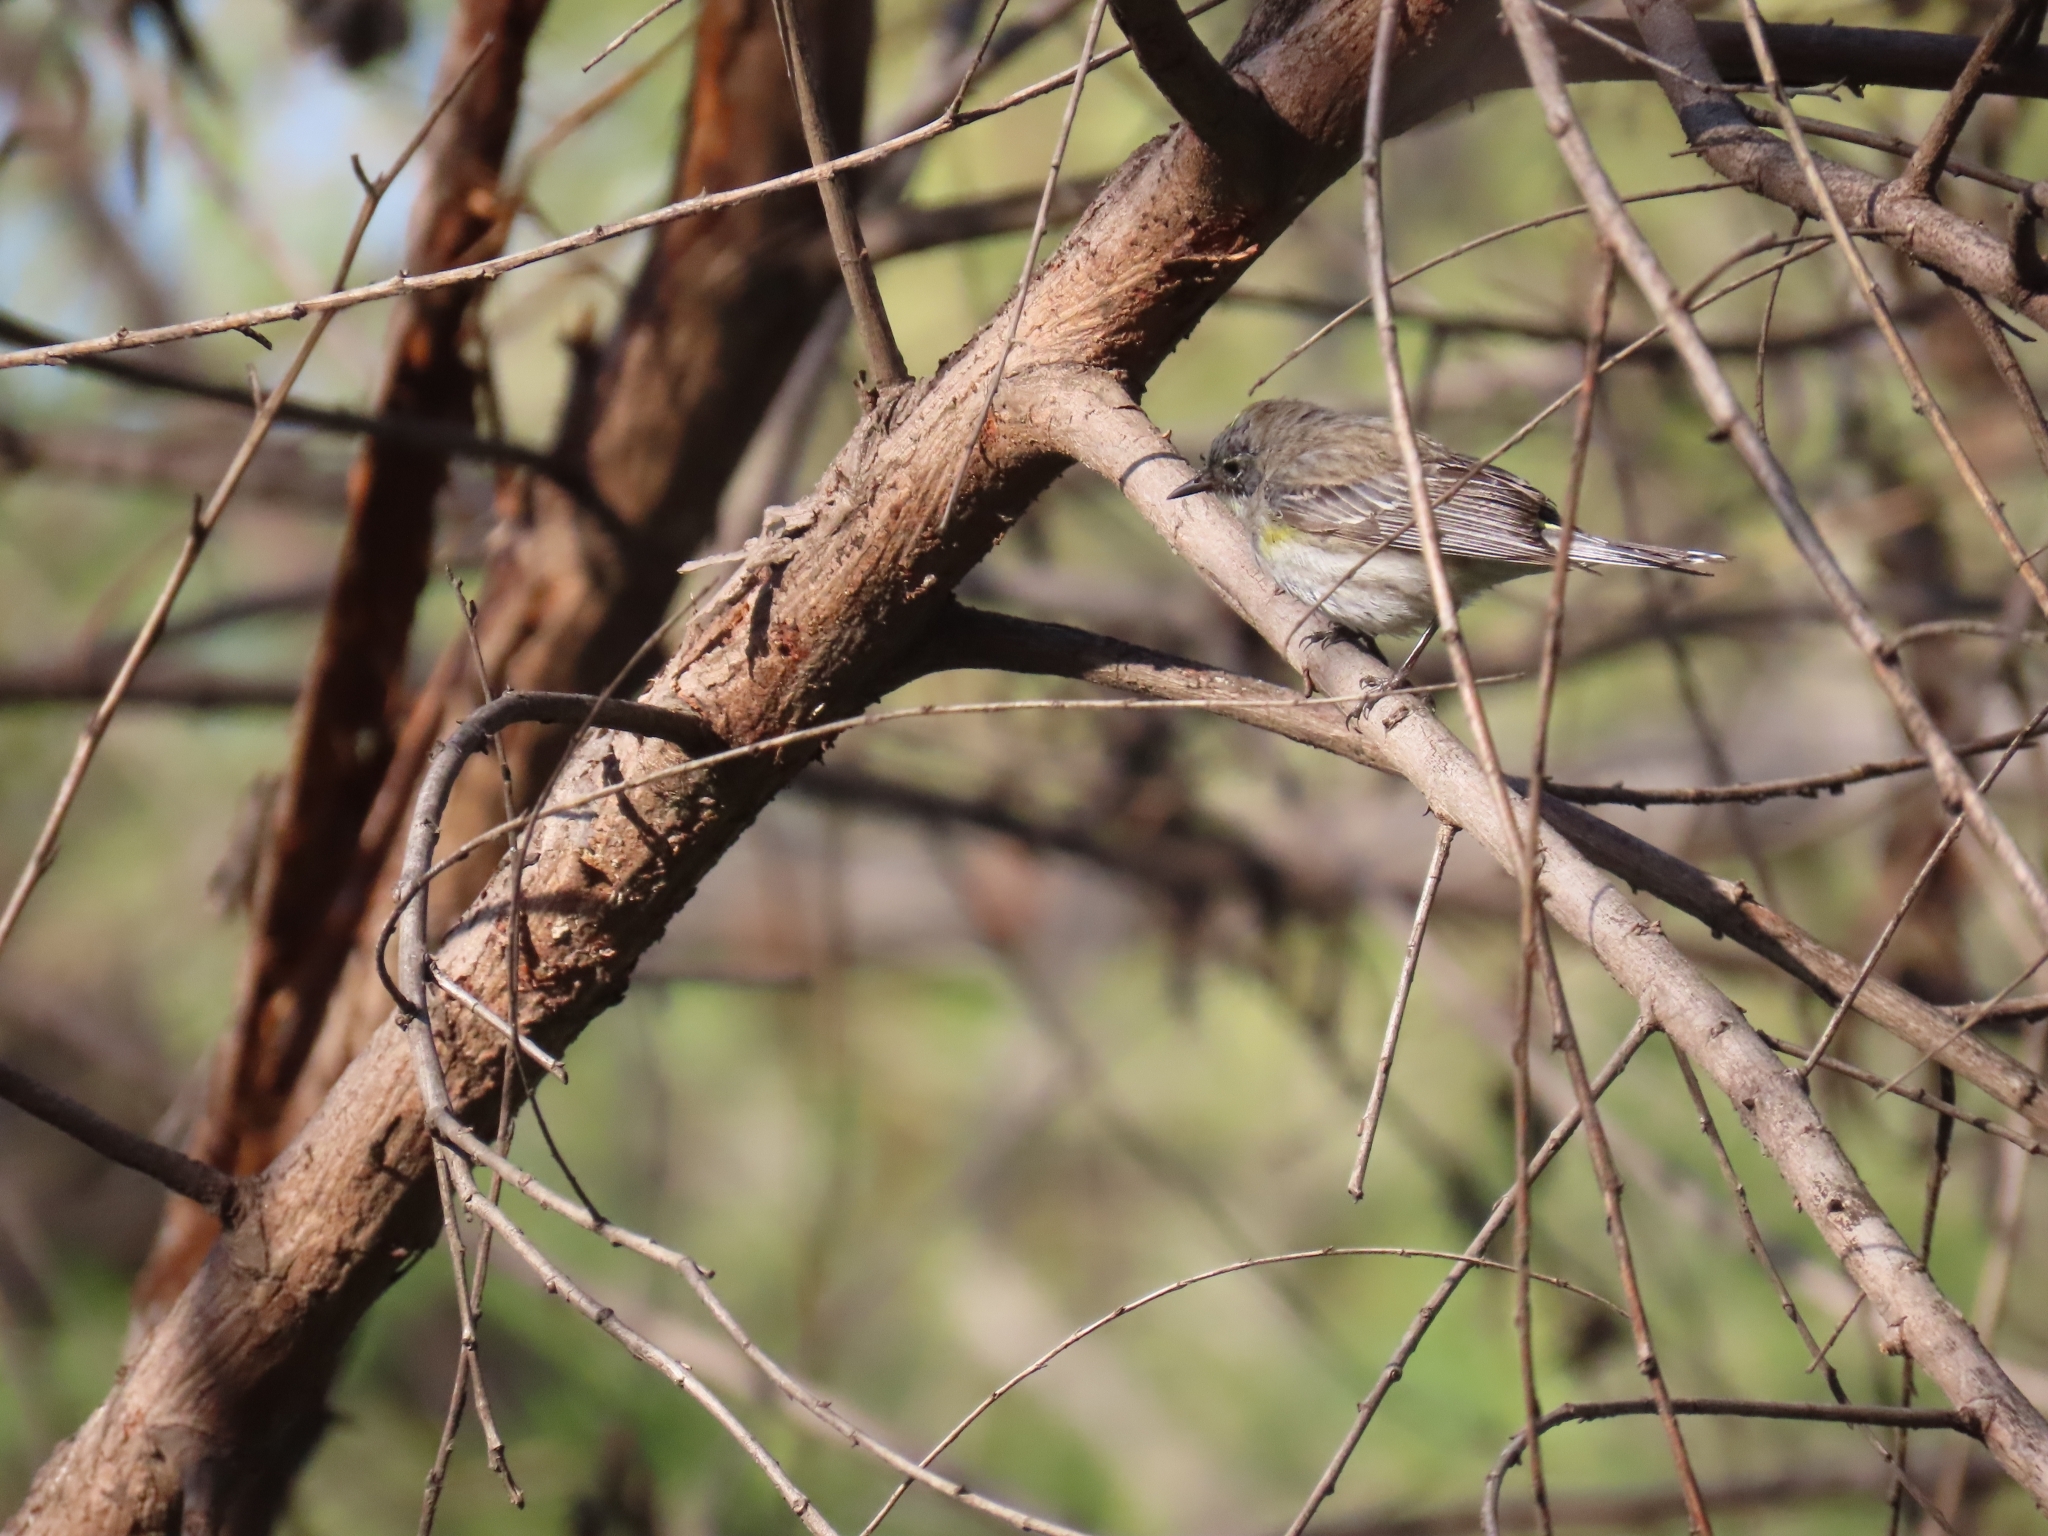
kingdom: Animalia
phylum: Chordata
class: Aves
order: Passeriformes
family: Parulidae
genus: Setophaga
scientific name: Setophaga coronata
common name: Myrtle warbler
